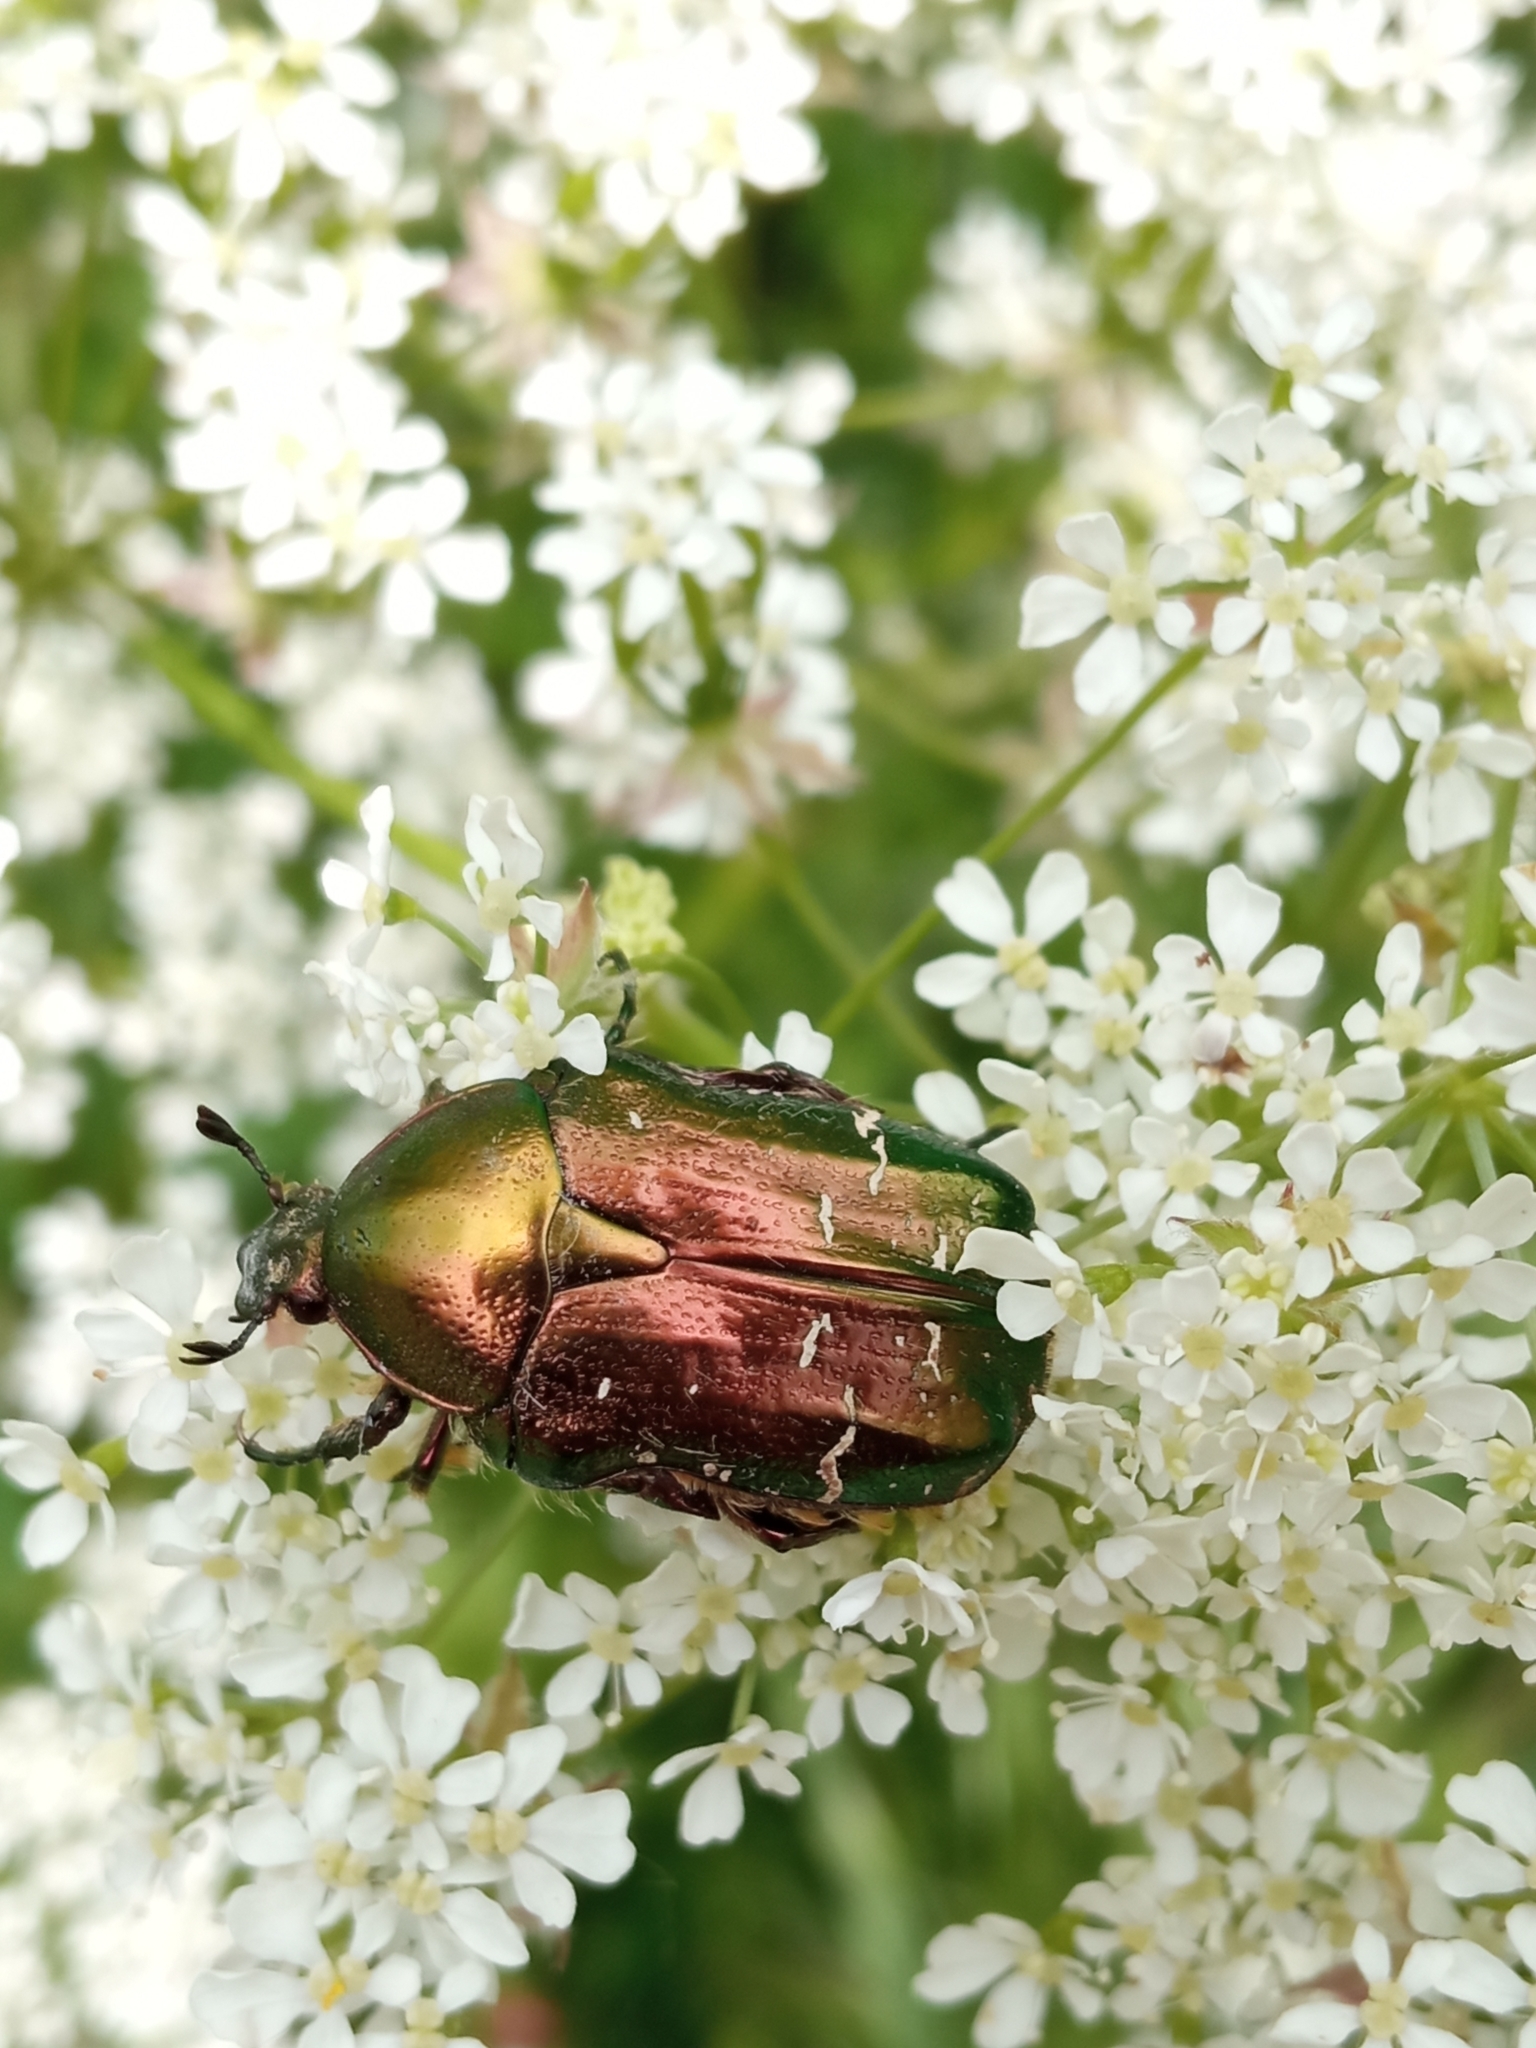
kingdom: Animalia
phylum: Arthropoda
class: Insecta
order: Coleoptera
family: Scarabaeidae
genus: Cetonia
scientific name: Cetonia aurata
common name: Rose chafer
